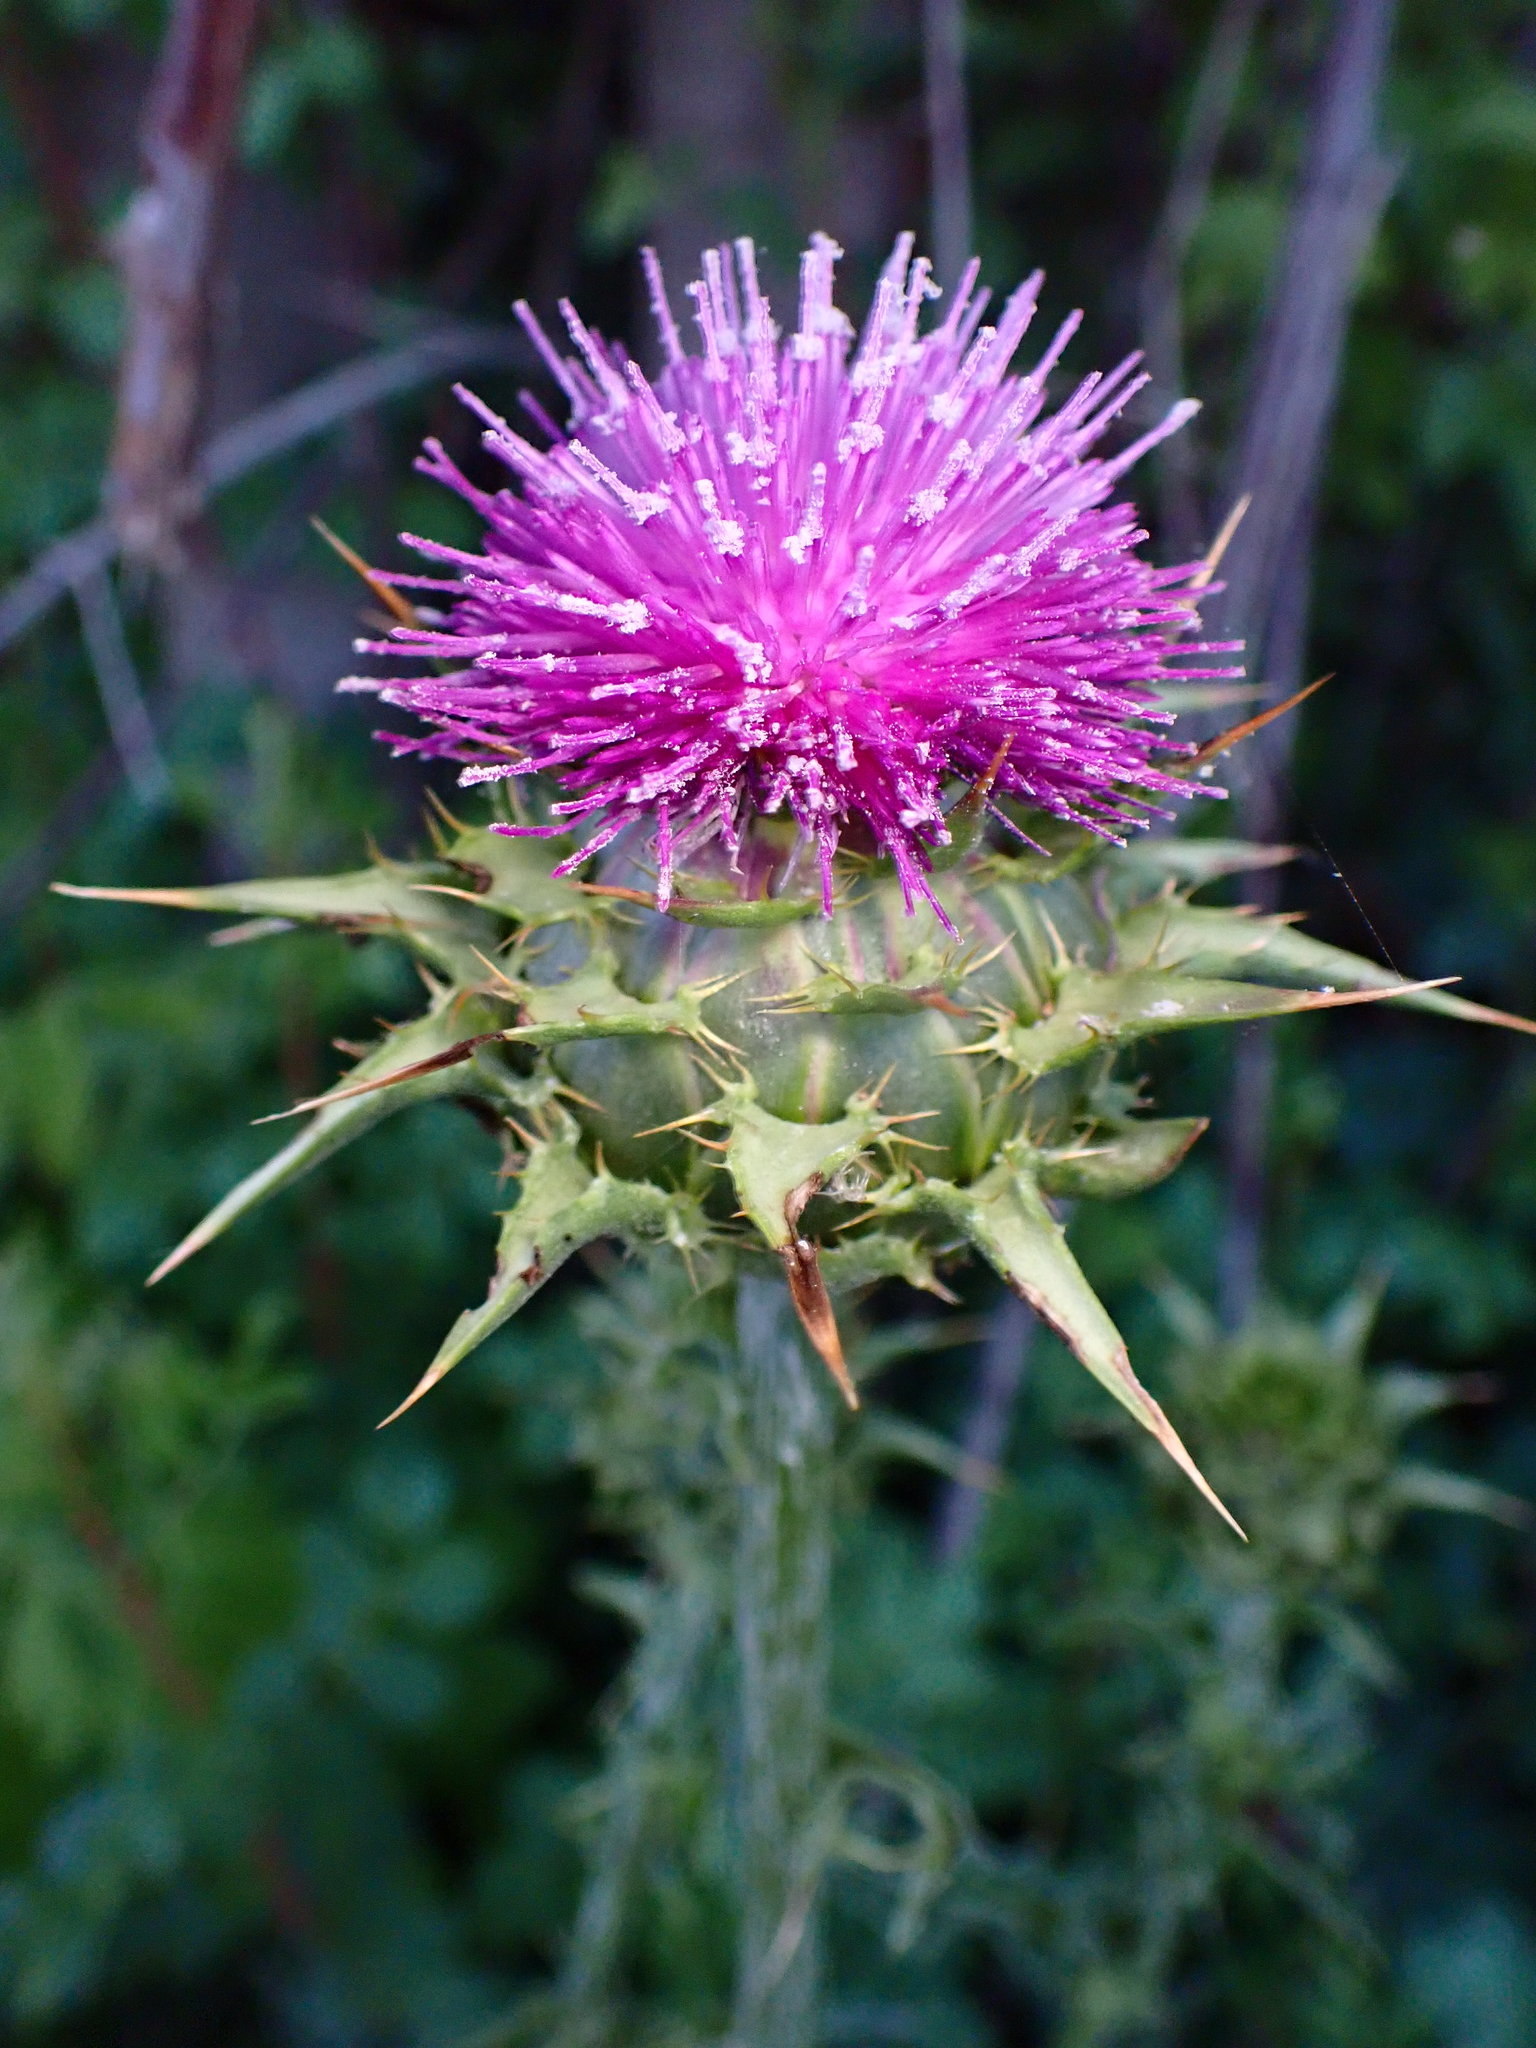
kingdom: Plantae
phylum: Tracheophyta
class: Magnoliopsida
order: Asterales
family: Asteraceae
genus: Silybum
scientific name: Silybum marianum
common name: Milk thistle
